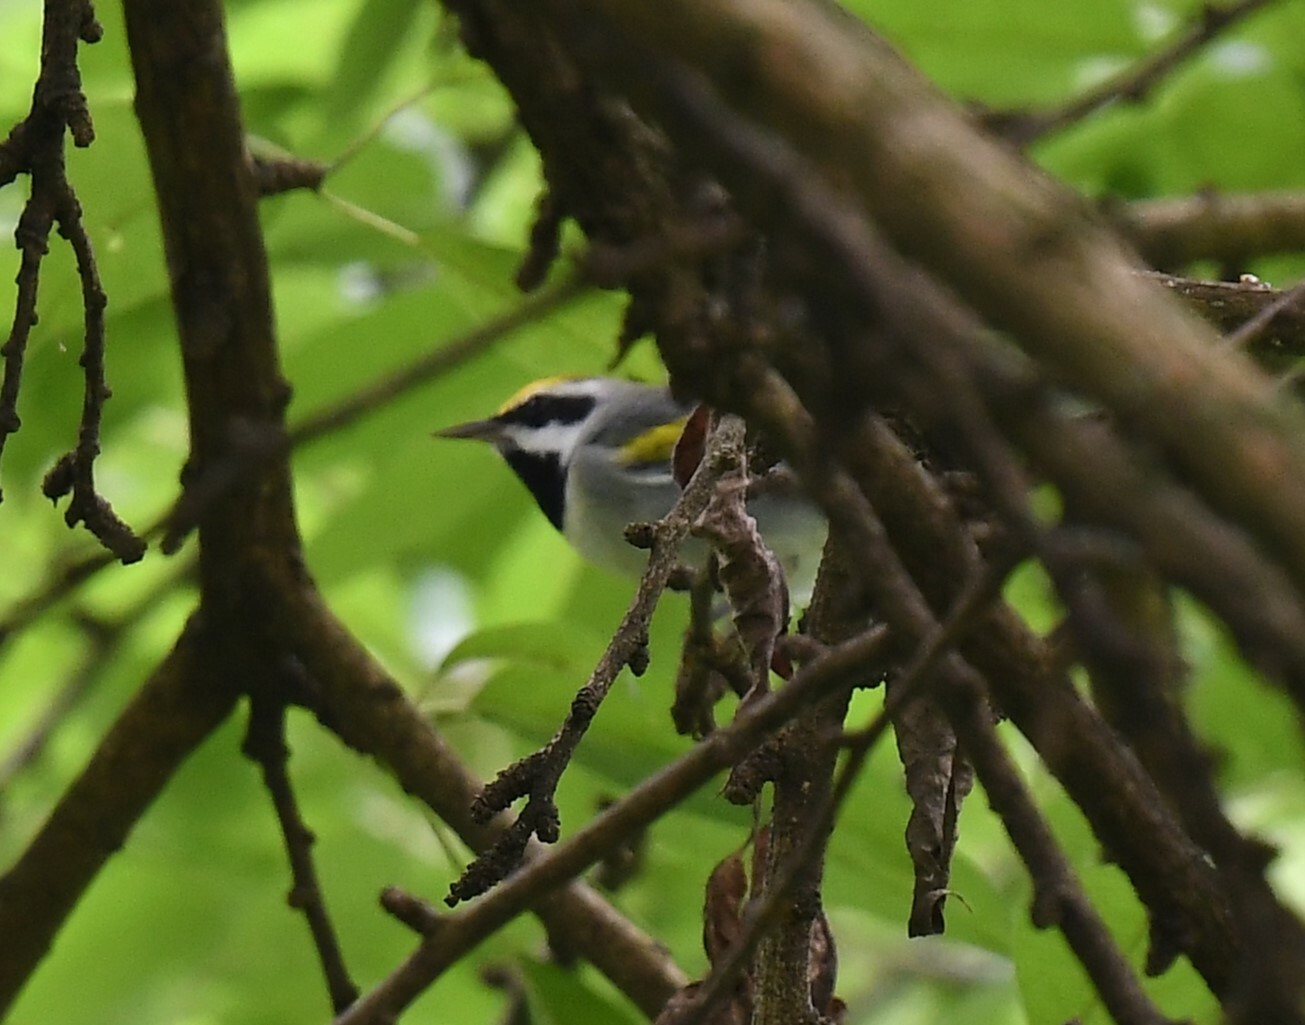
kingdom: Animalia
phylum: Chordata
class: Aves
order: Passeriformes
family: Parulidae
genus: Vermivora
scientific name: Vermivora chrysoptera
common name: Golden-winged warbler
